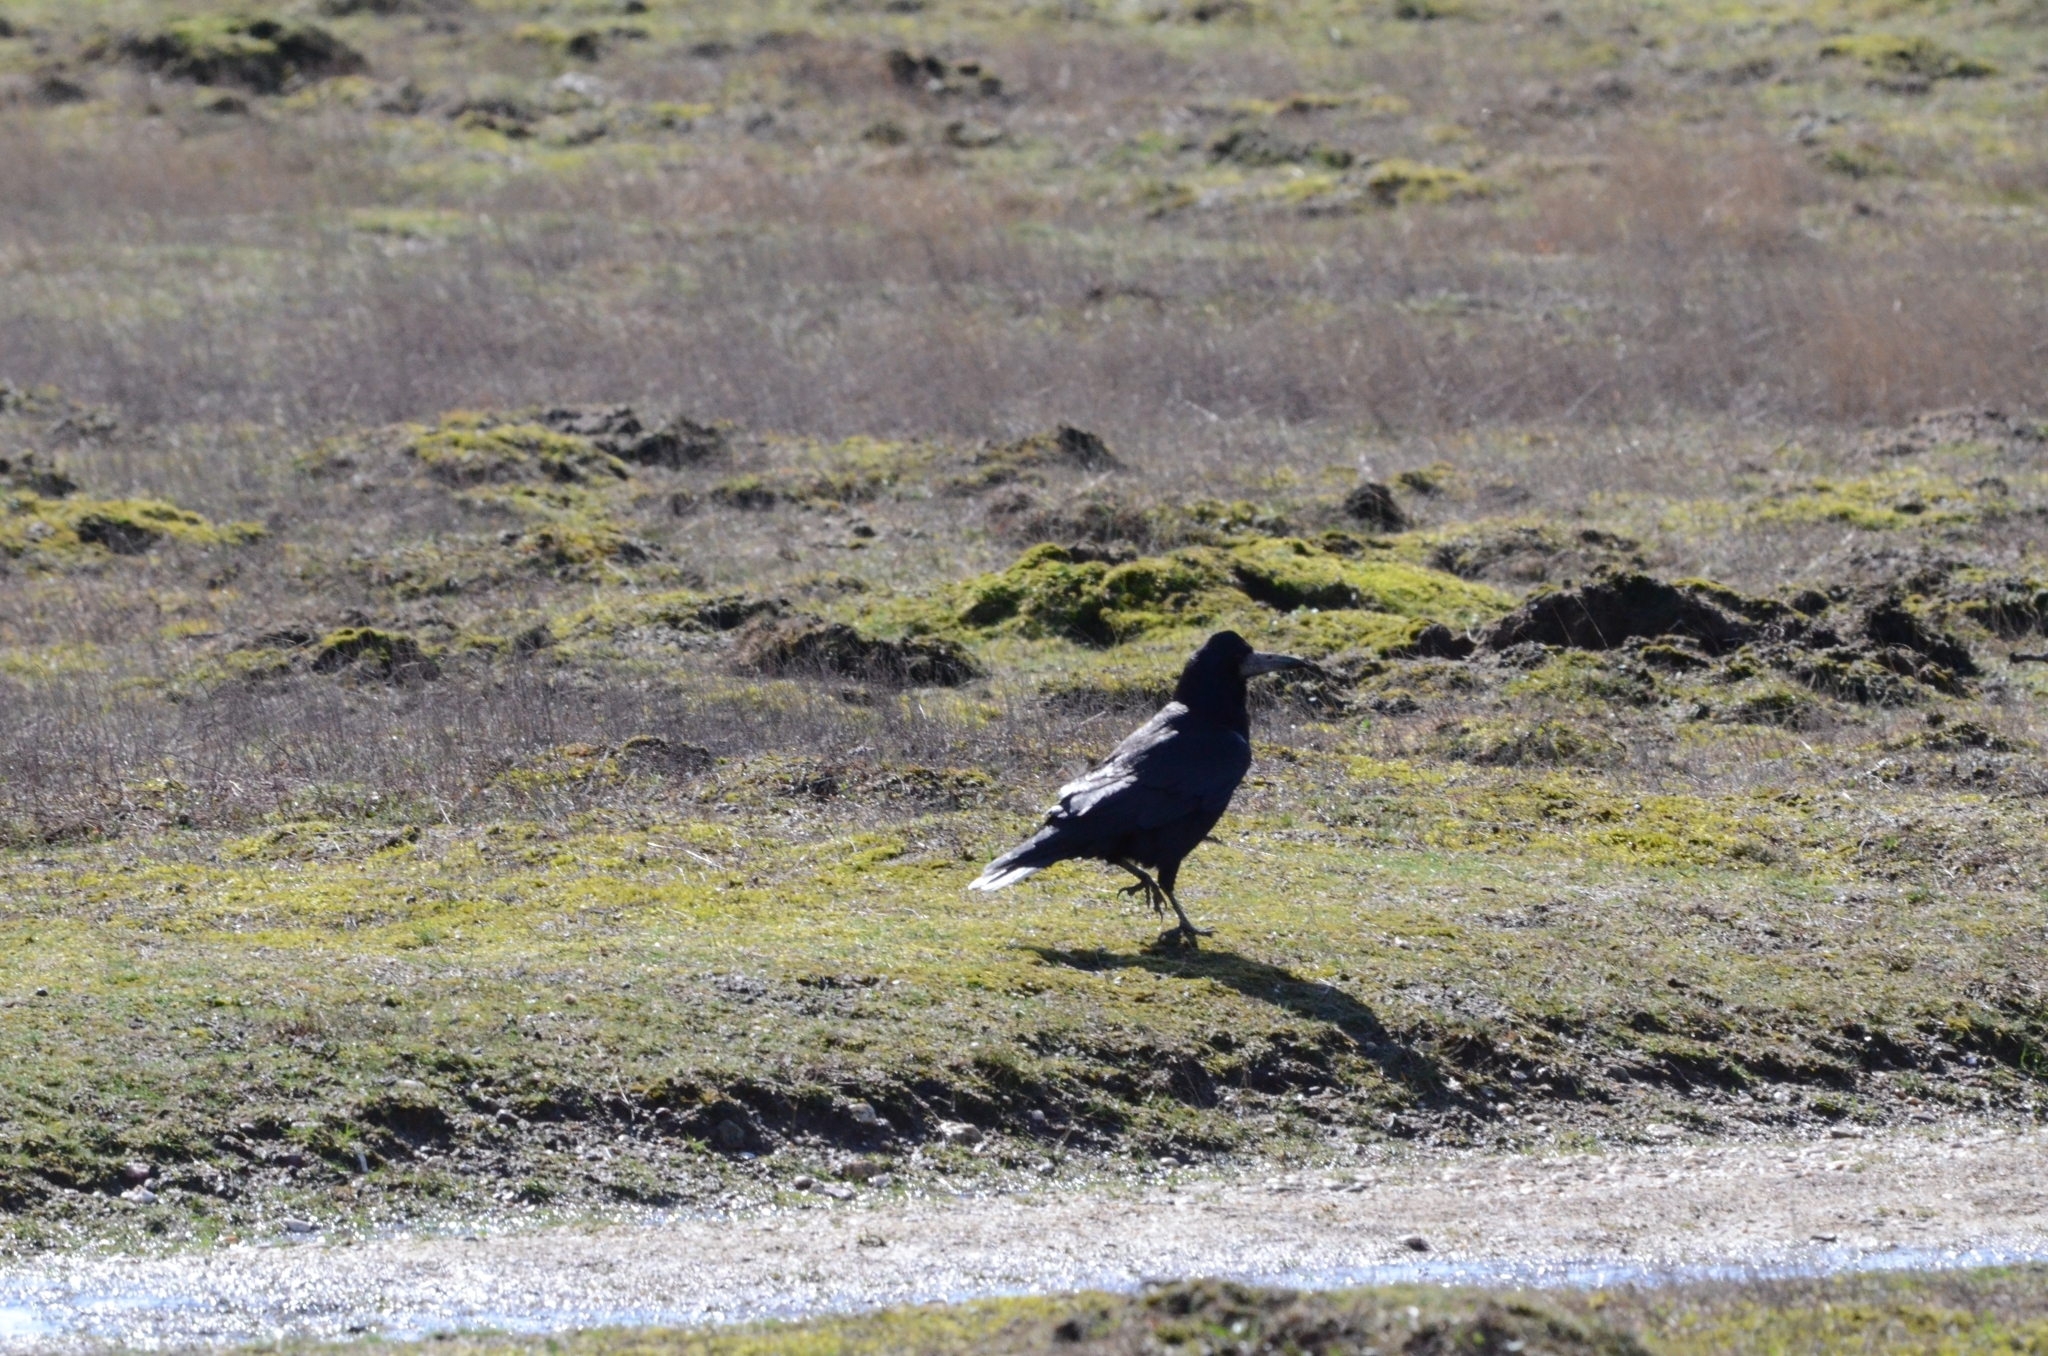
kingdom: Animalia
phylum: Chordata
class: Aves
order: Passeriformes
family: Corvidae
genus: Corvus
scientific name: Corvus frugilegus
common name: Rook
